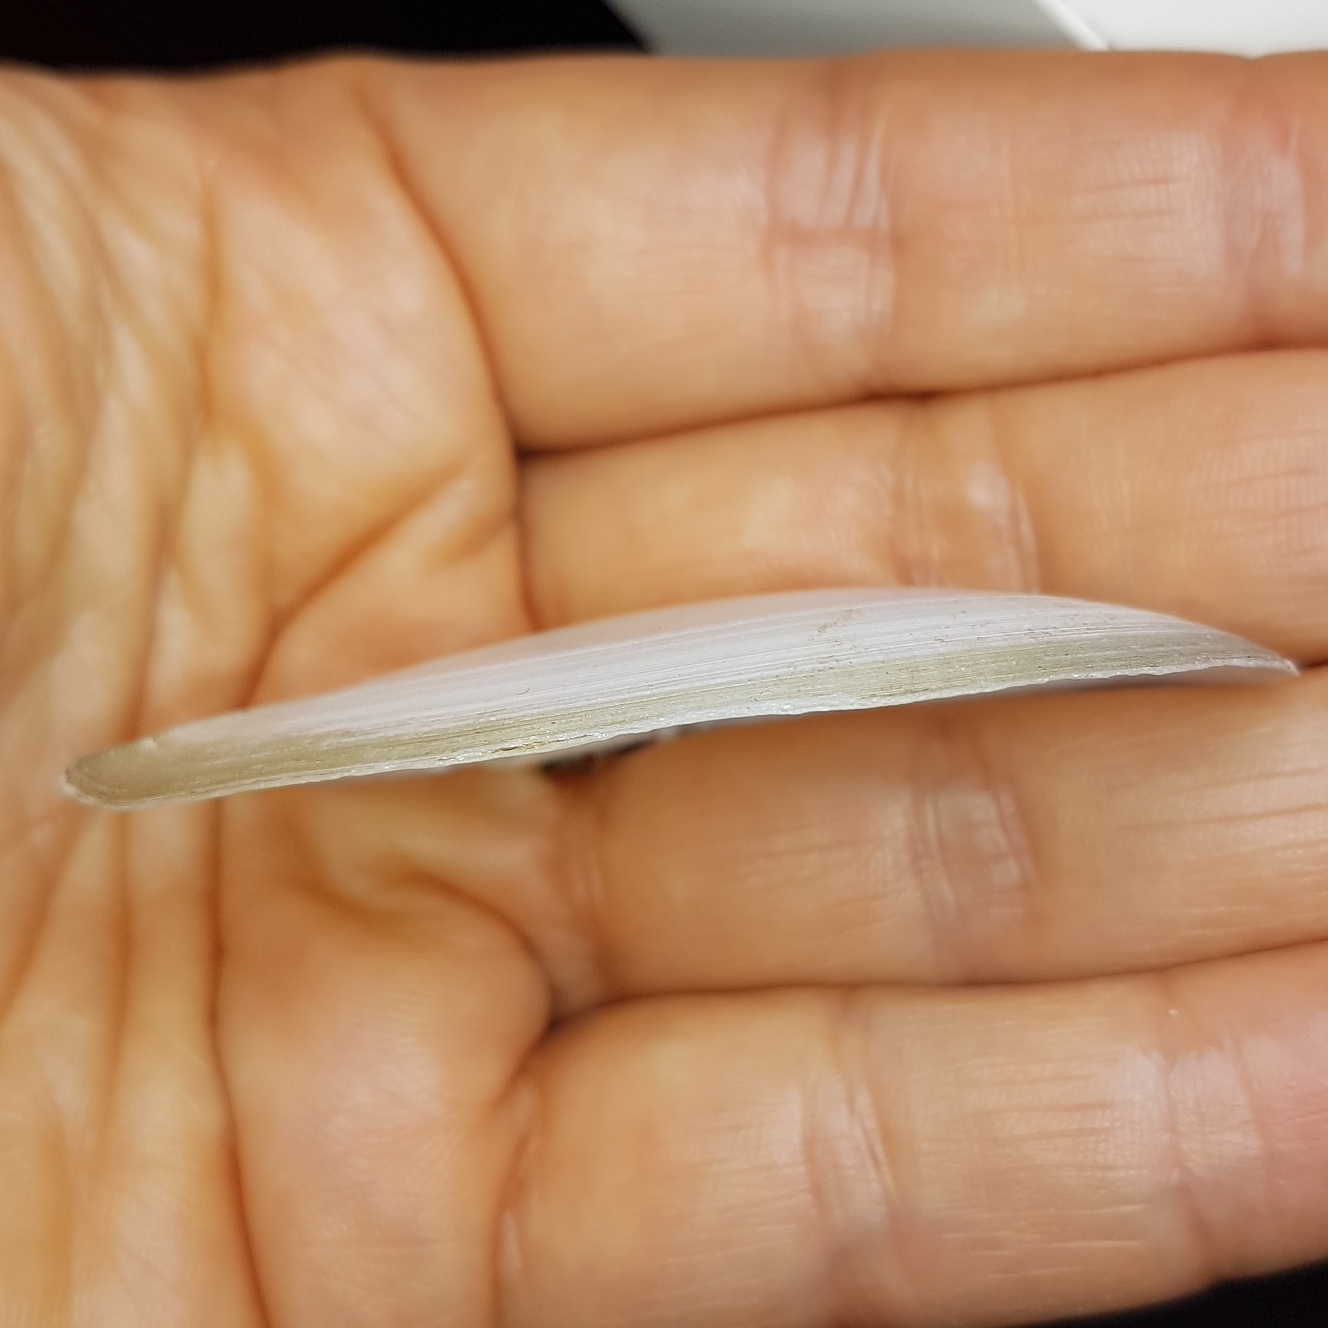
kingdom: Animalia
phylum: Mollusca
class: Bivalvia
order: Cardiida
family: Tellinidae
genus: Peronaea
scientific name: Peronaea planata
